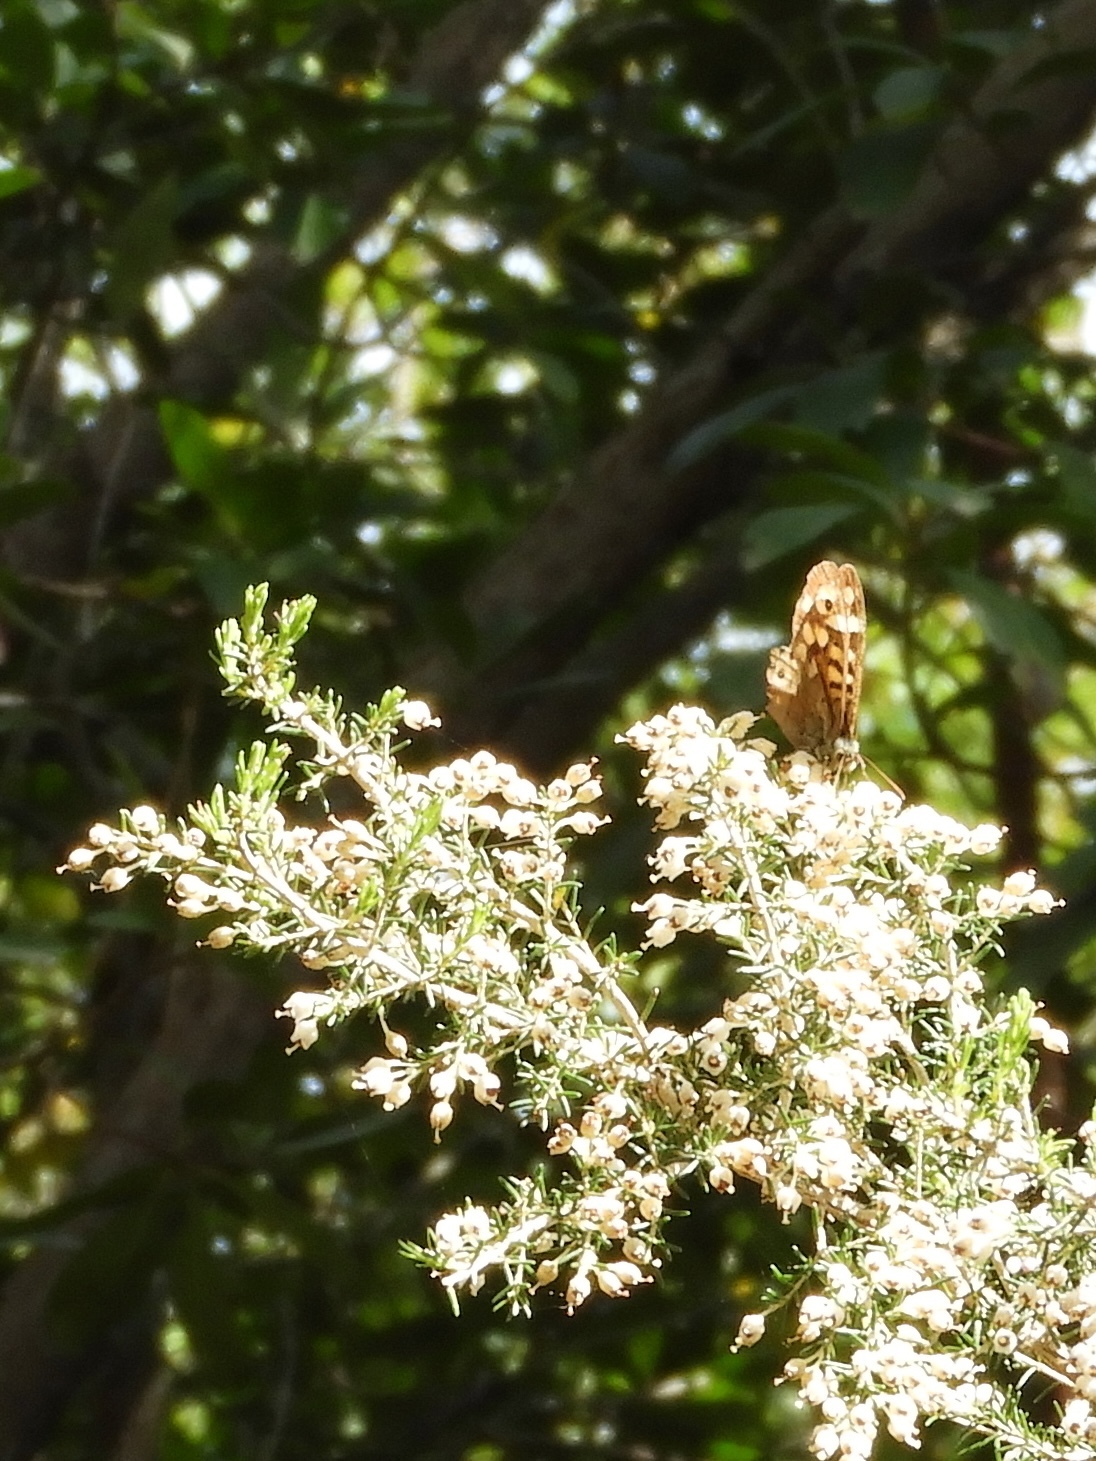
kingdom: Animalia
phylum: Arthropoda
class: Insecta
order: Lepidoptera
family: Nymphalidae
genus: Pararge
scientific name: Pararge aegeria
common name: Speckled wood
